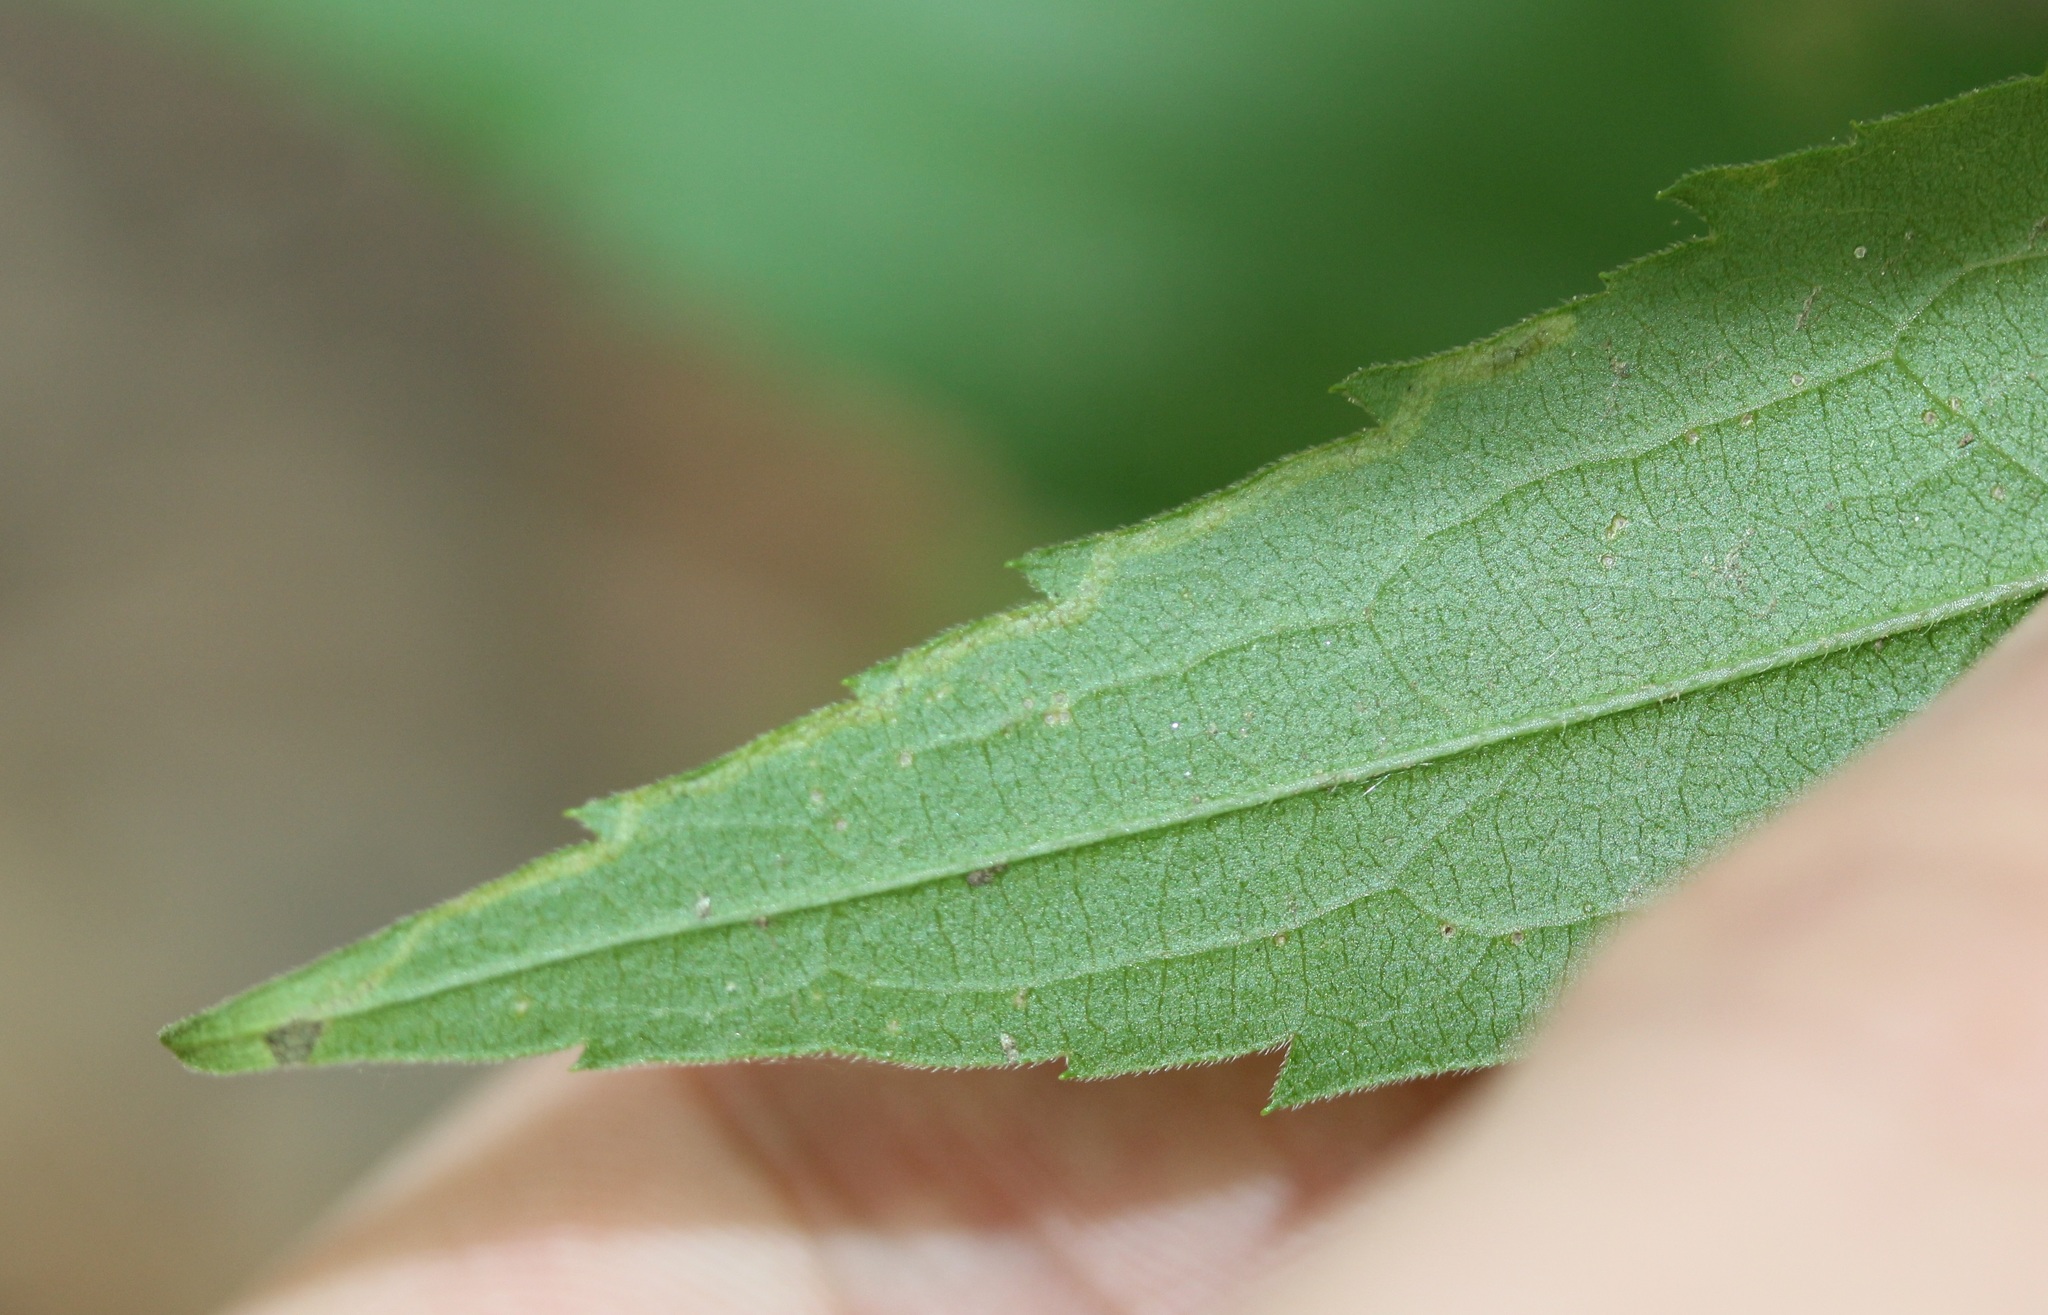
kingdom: Animalia
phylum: Arthropoda
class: Insecta
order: Diptera
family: Agromyzidae
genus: Liriomyza
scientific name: Liriomyza eupatorii
